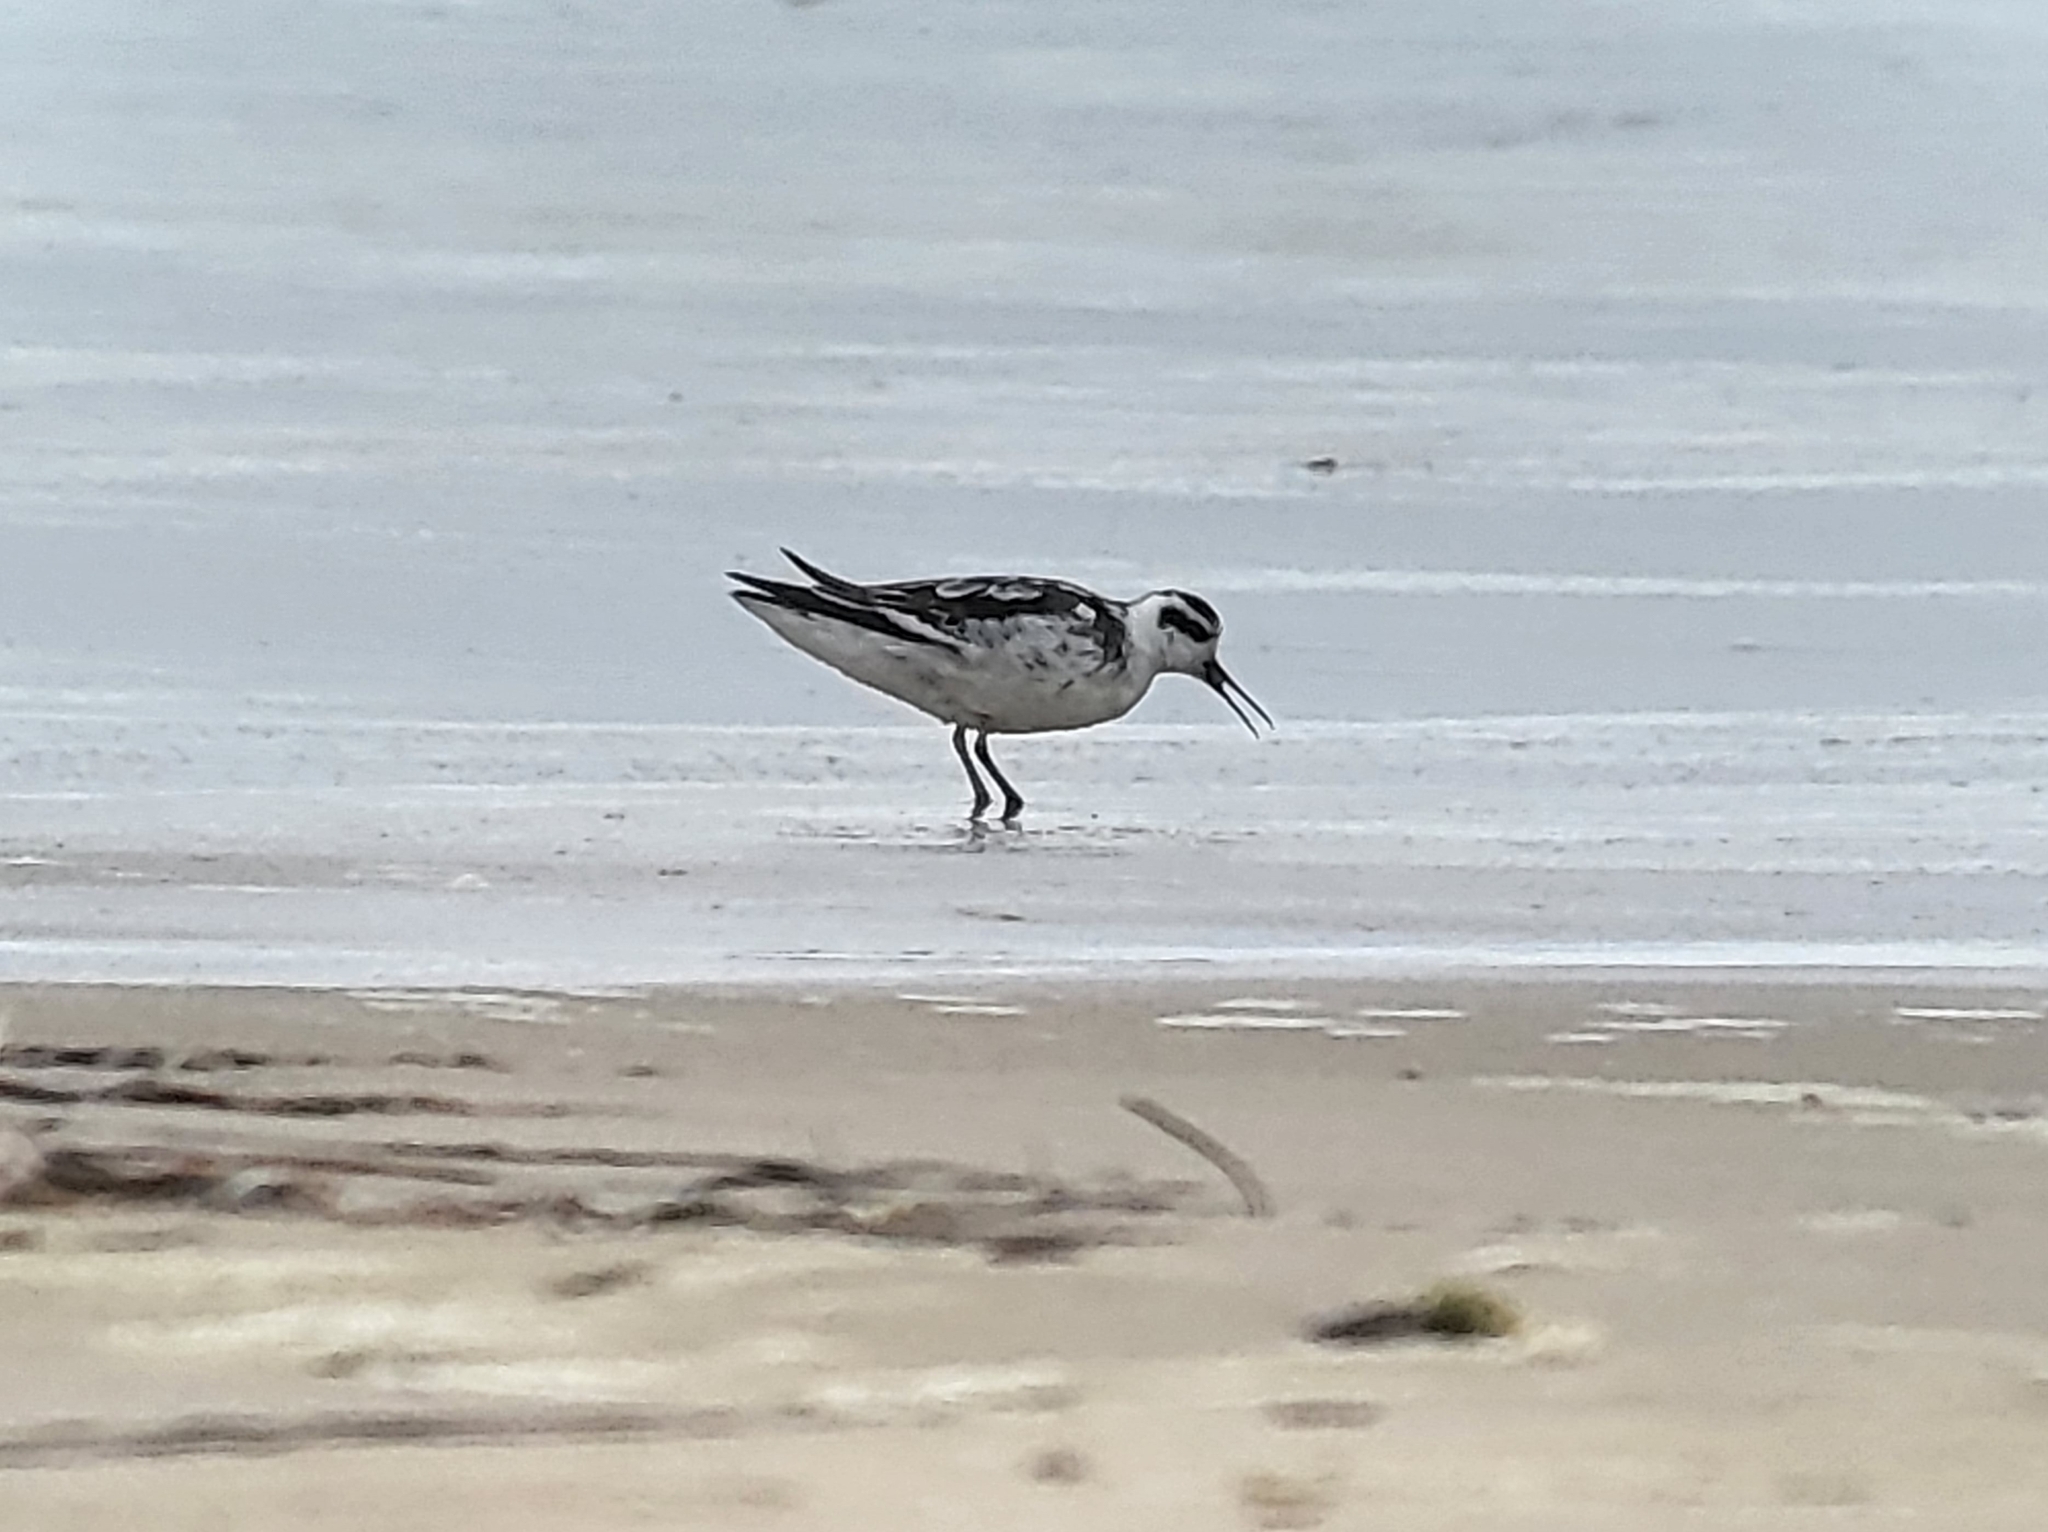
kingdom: Animalia
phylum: Chordata
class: Aves
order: Charadriiformes
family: Scolopacidae
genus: Phalaropus
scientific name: Phalaropus lobatus
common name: Red-necked phalarope
